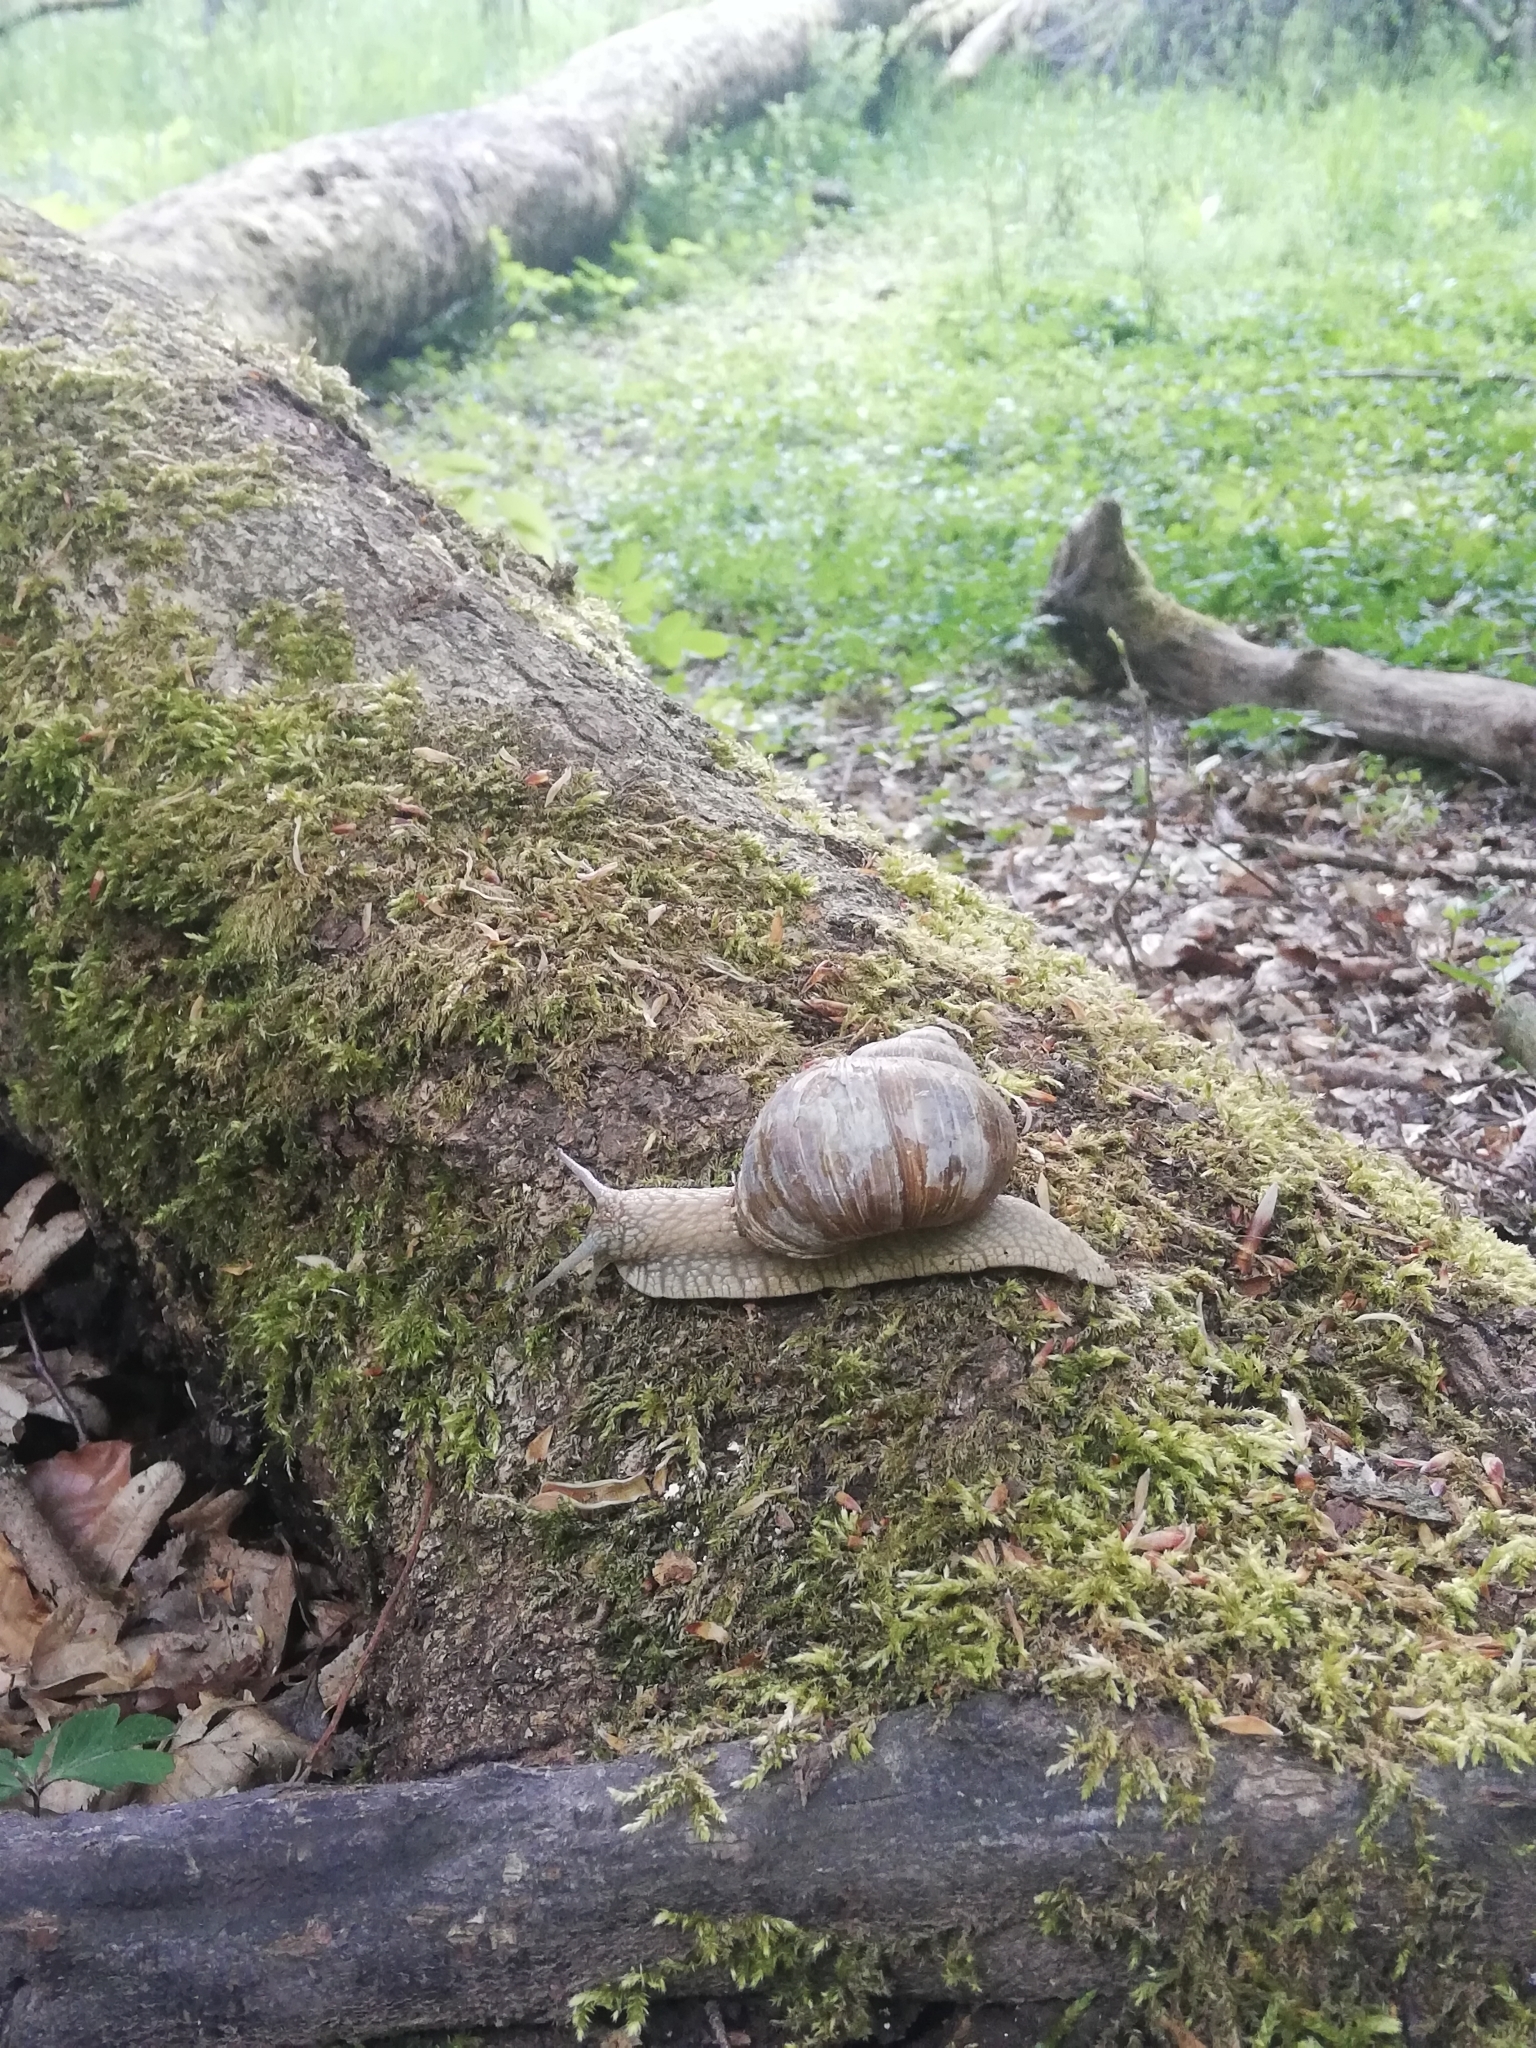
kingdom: Animalia
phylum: Mollusca
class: Gastropoda
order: Stylommatophora
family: Helicidae
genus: Helix
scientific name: Helix pomatia
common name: Roman snail
